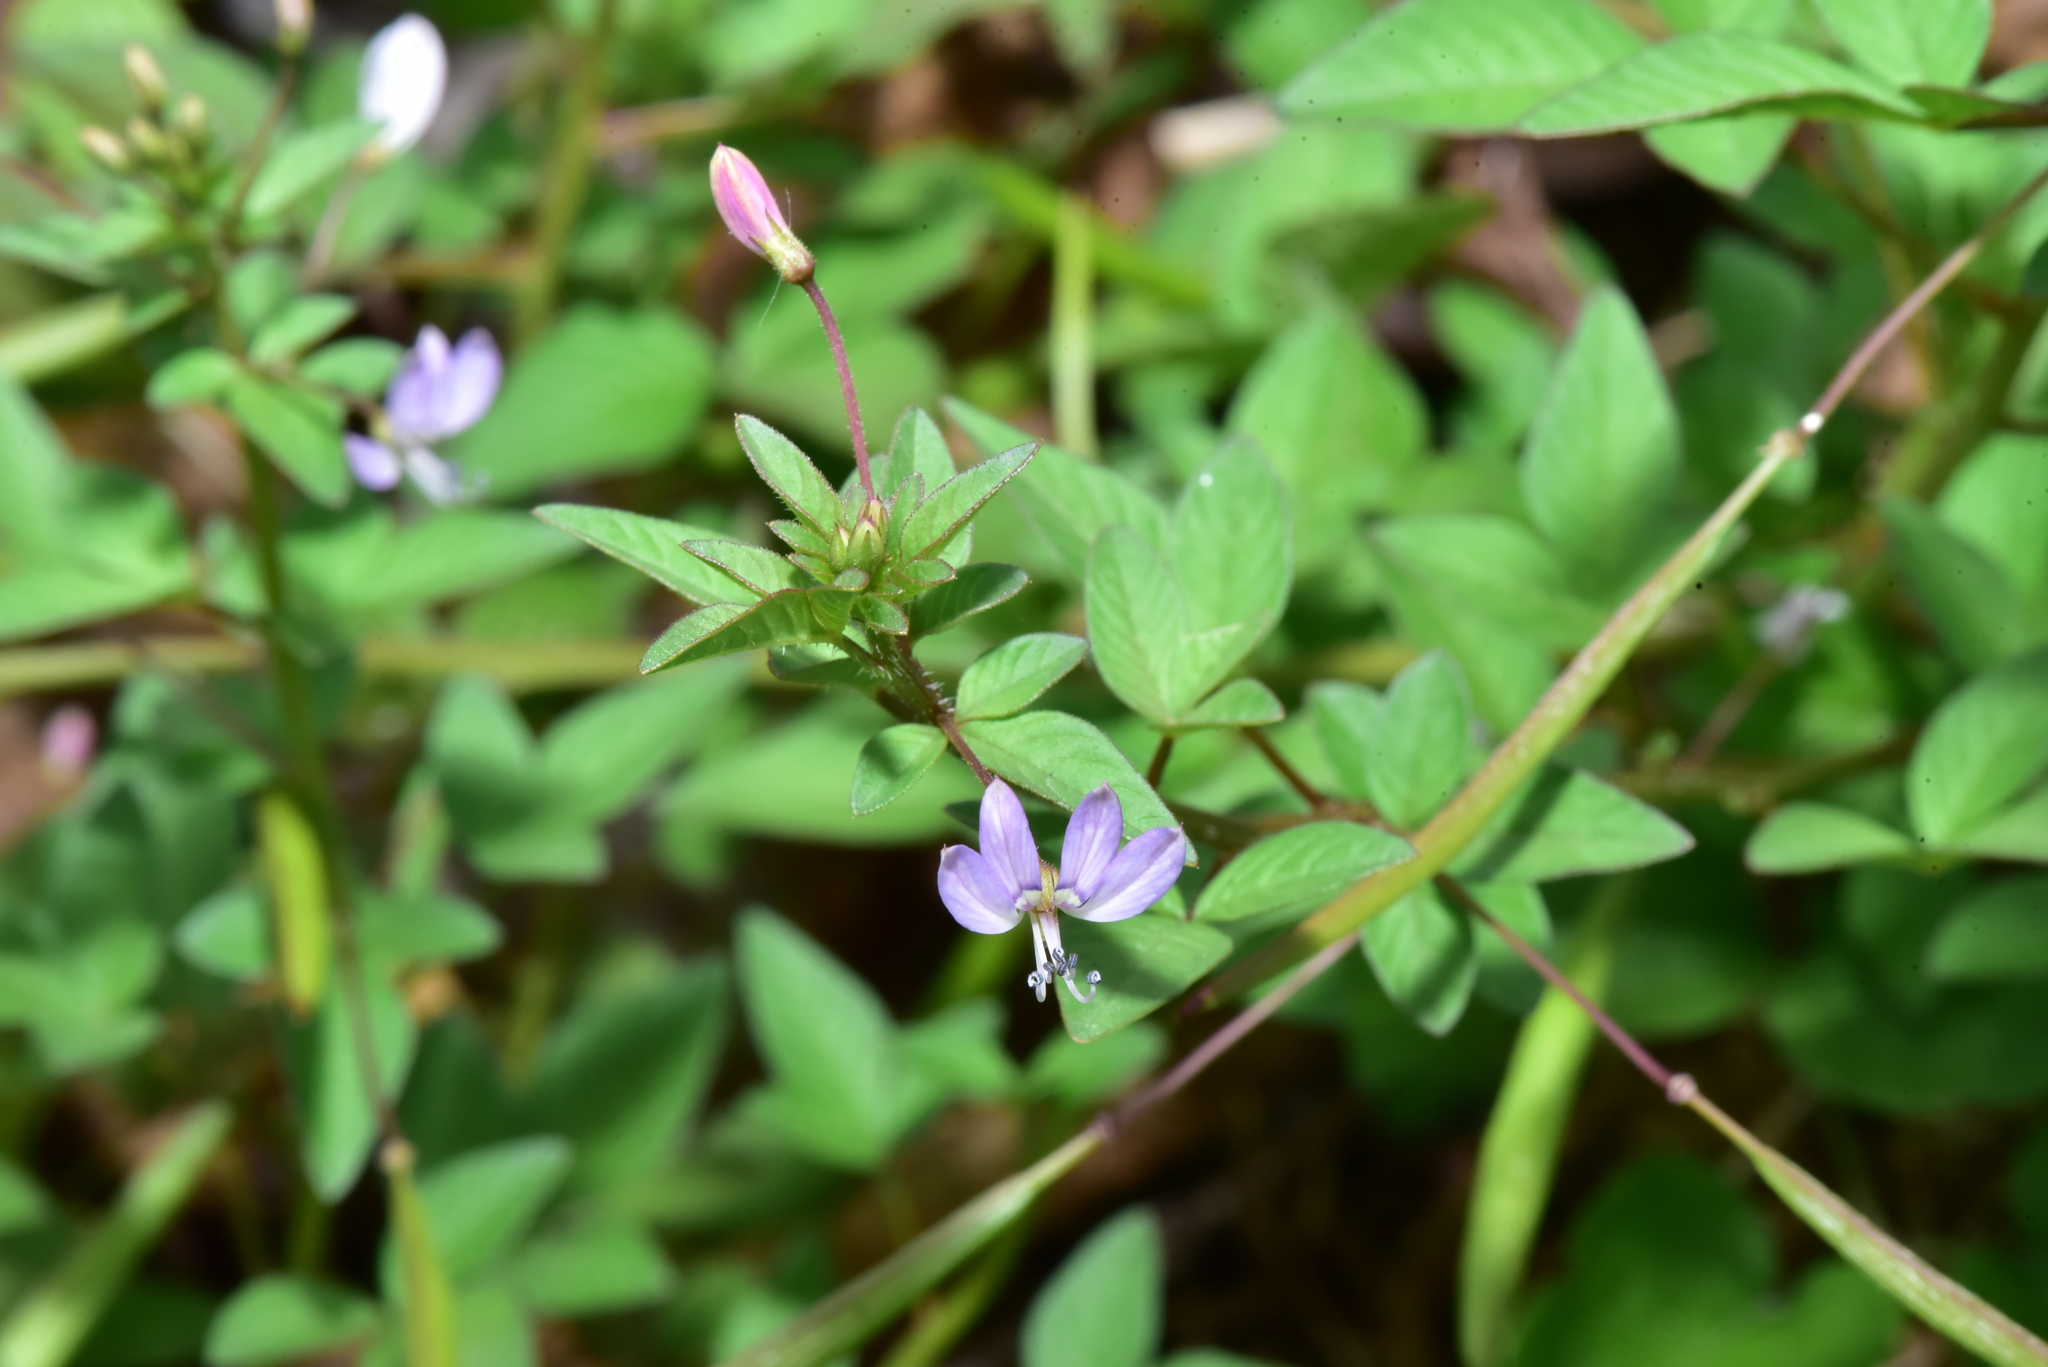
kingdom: Plantae
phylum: Tracheophyta
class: Magnoliopsida
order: Brassicales
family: Cleomaceae
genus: Sieruela
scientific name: Sieruela rutidosperma
